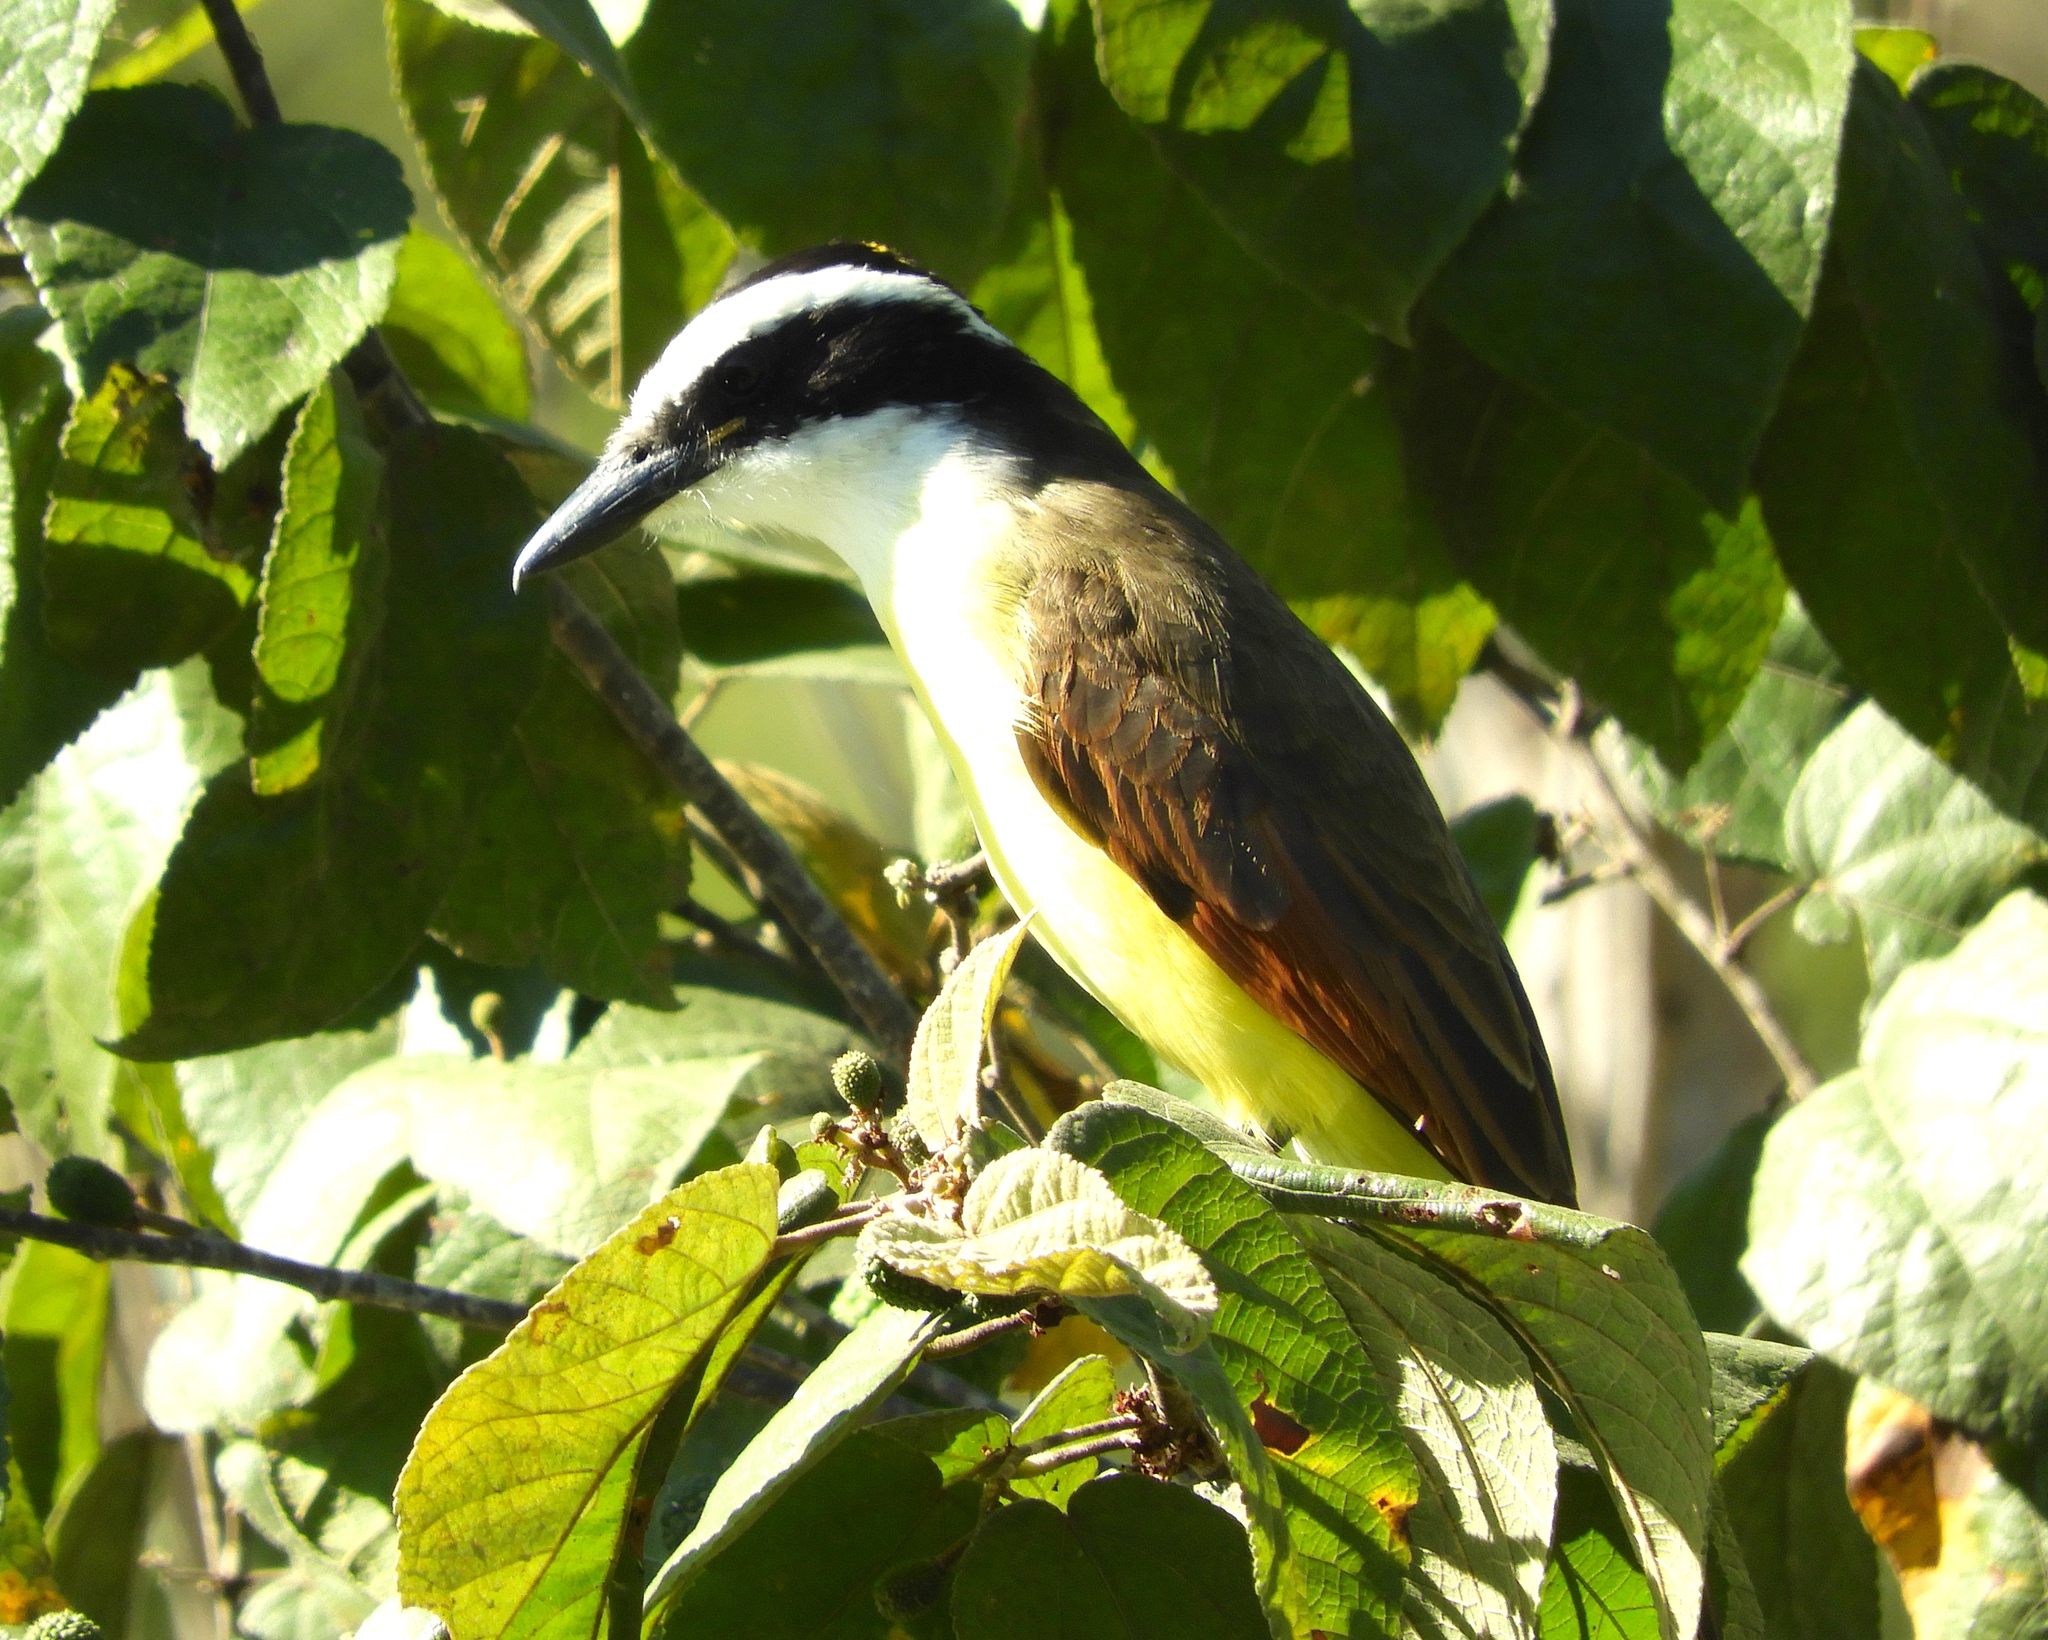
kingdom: Animalia
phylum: Chordata
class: Aves
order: Passeriformes
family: Tyrannidae
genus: Pitangus
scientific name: Pitangus sulphuratus
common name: Great kiskadee
